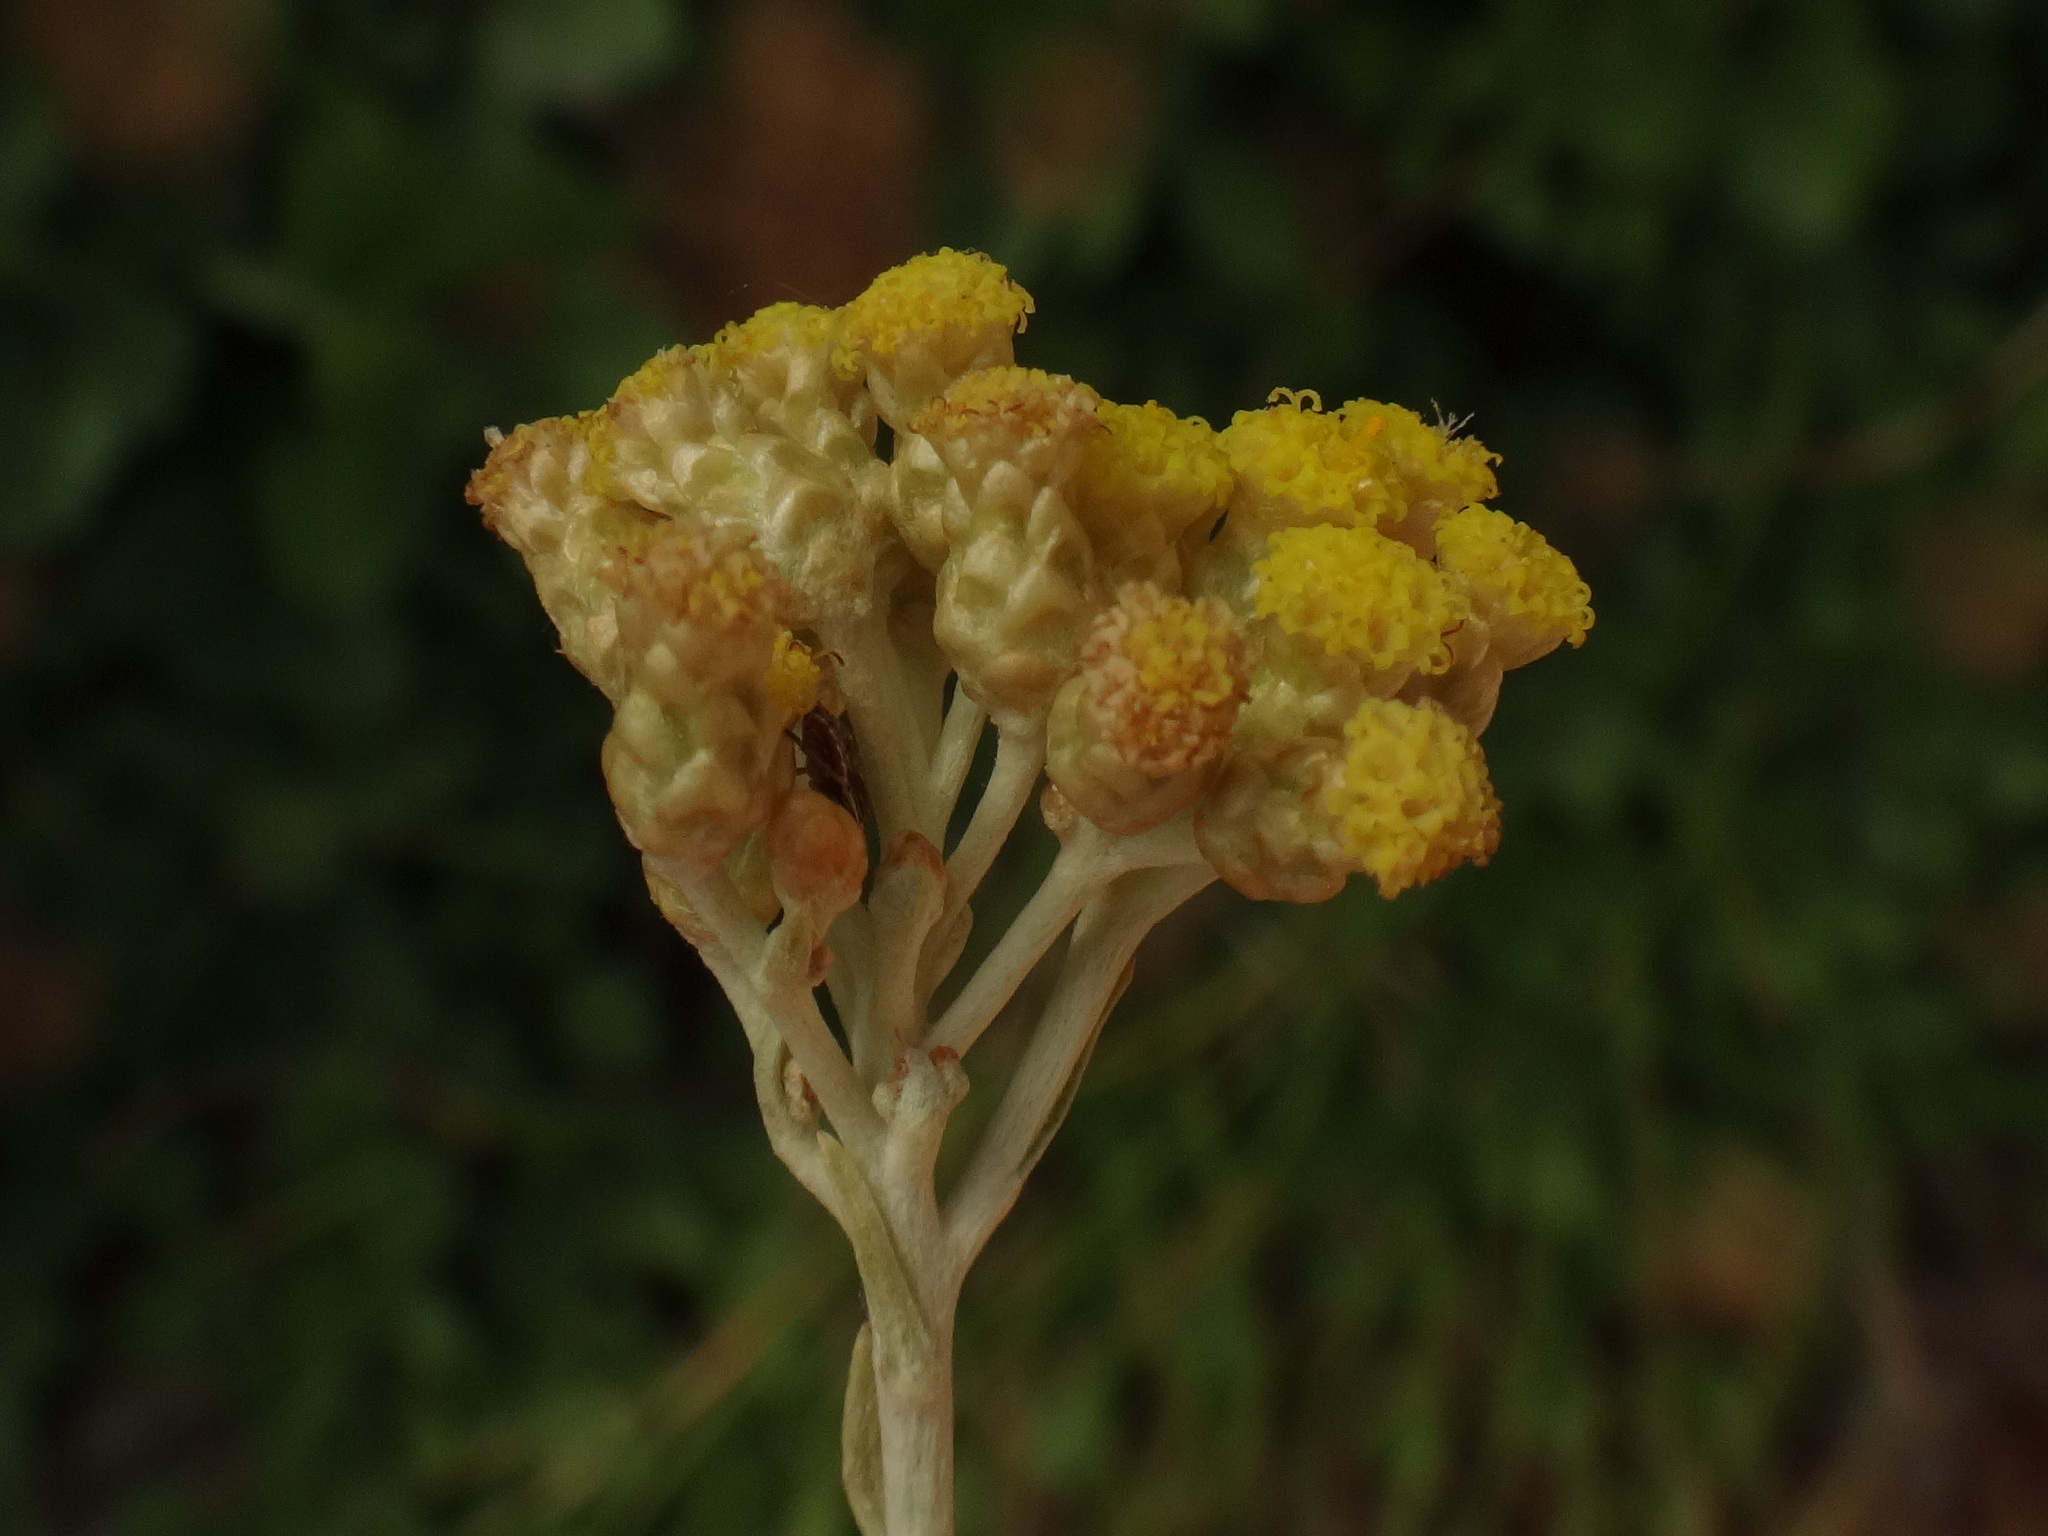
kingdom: Plantae
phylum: Tracheophyta
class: Magnoliopsida
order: Asterales
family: Asteraceae
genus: Helichrysum
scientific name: Helichrysum italicum
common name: Curryplant
